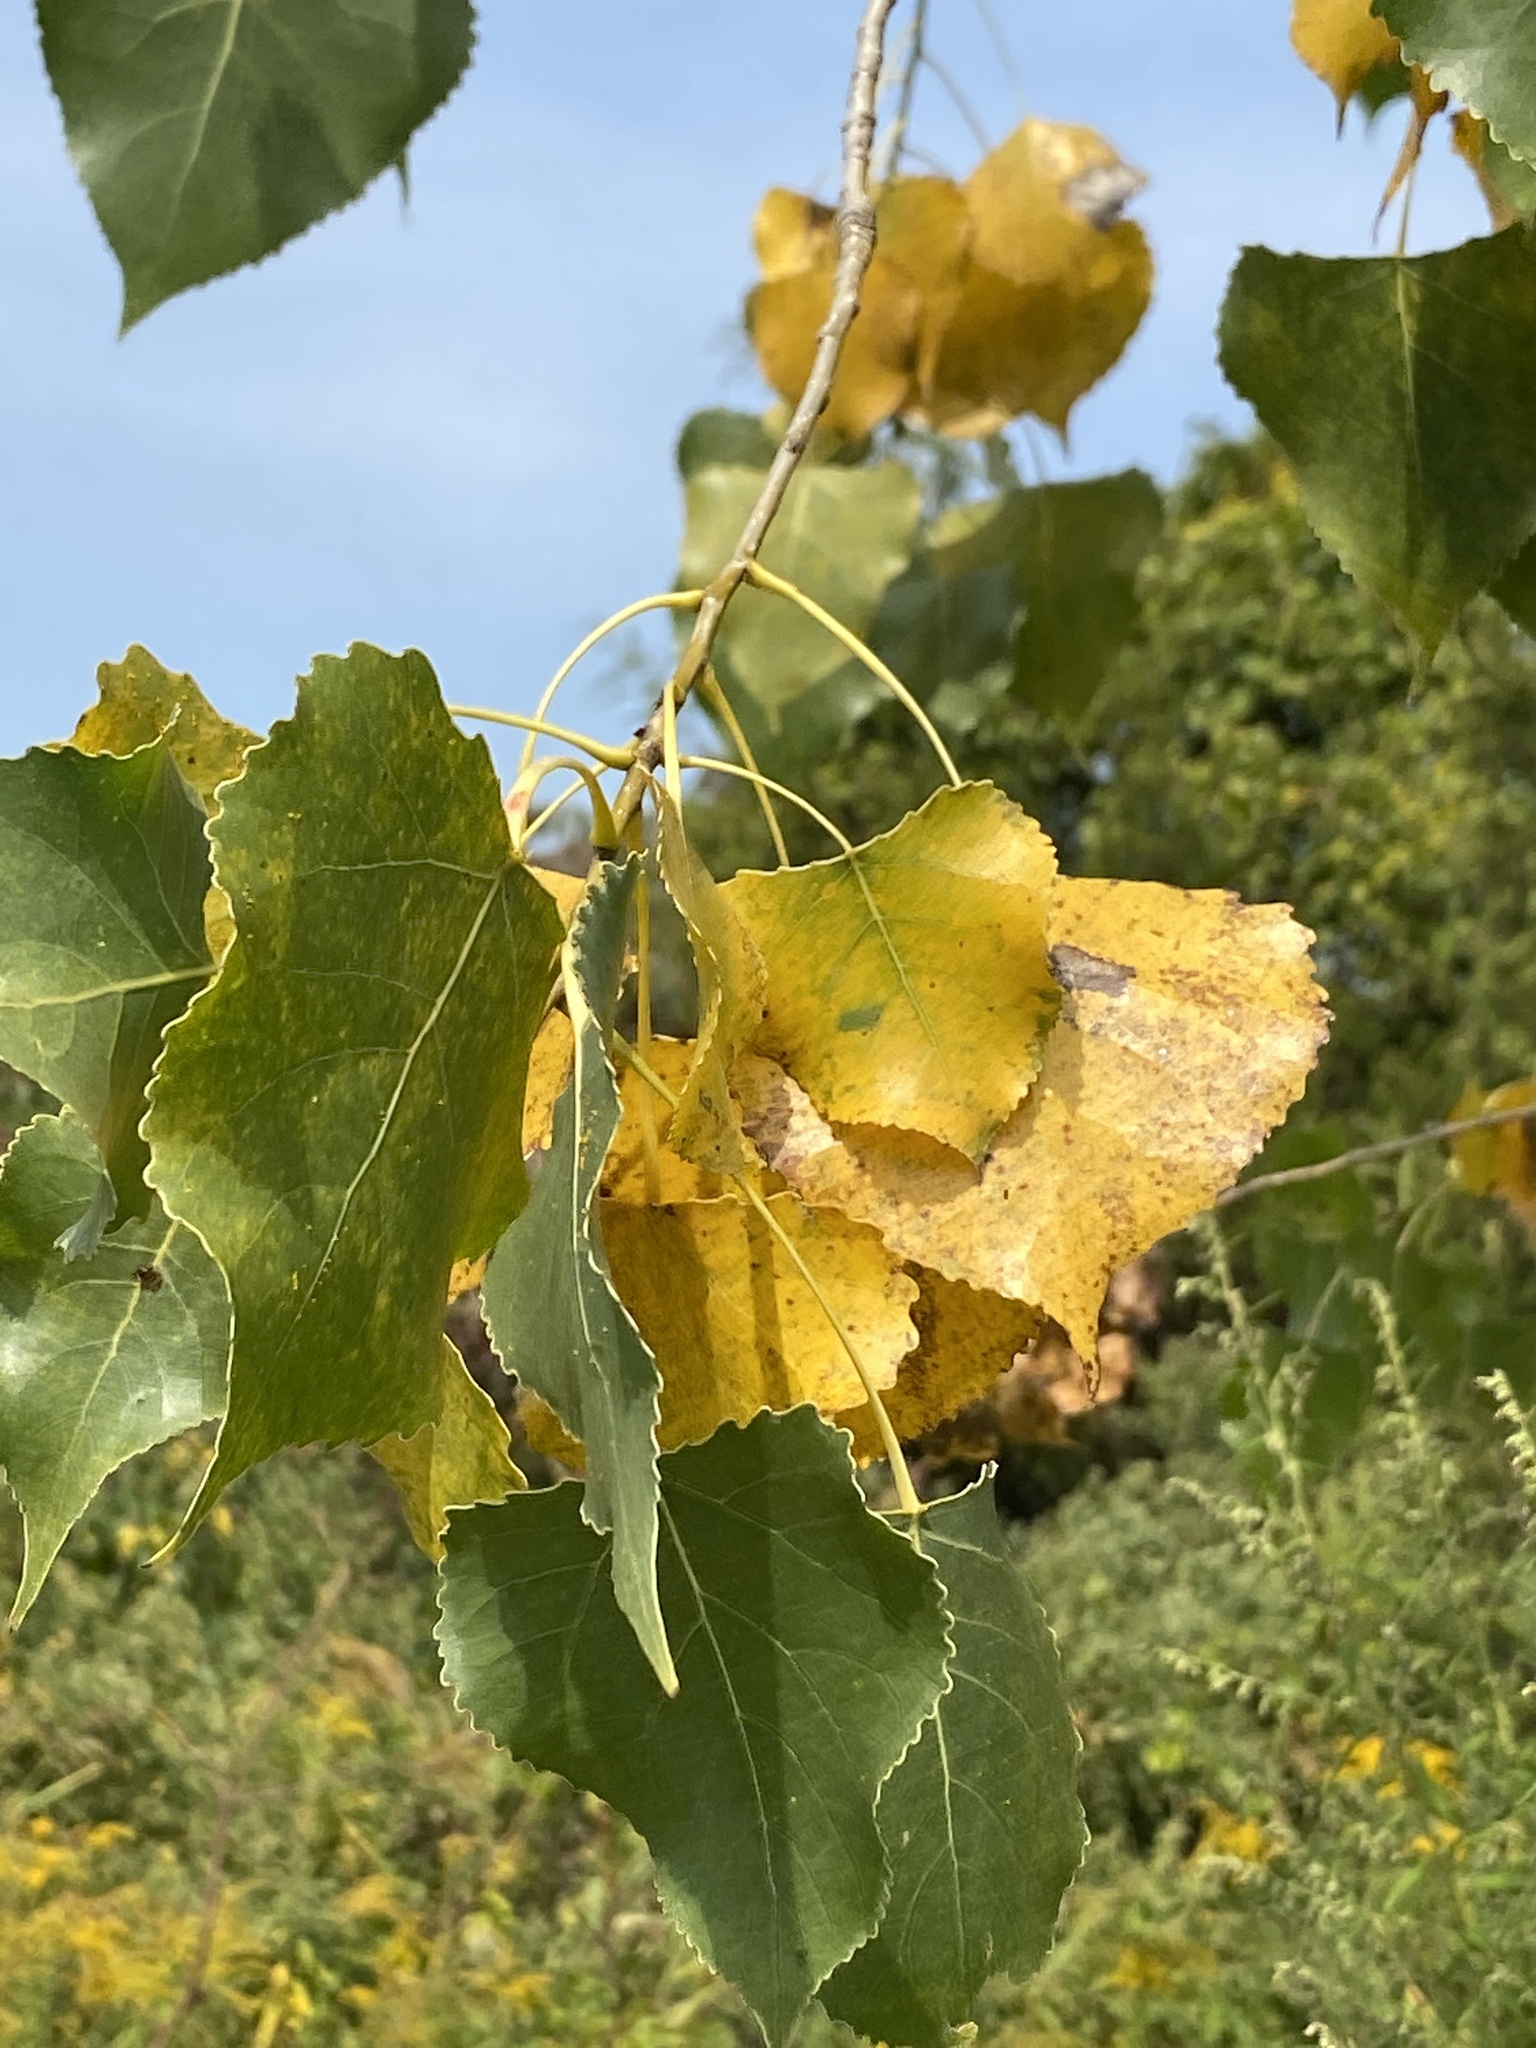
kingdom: Plantae
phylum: Tracheophyta
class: Magnoliopsida
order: Malpighiales
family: Salicaceae
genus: Populus
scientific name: Populus deltoides
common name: Eastern cottonwood
